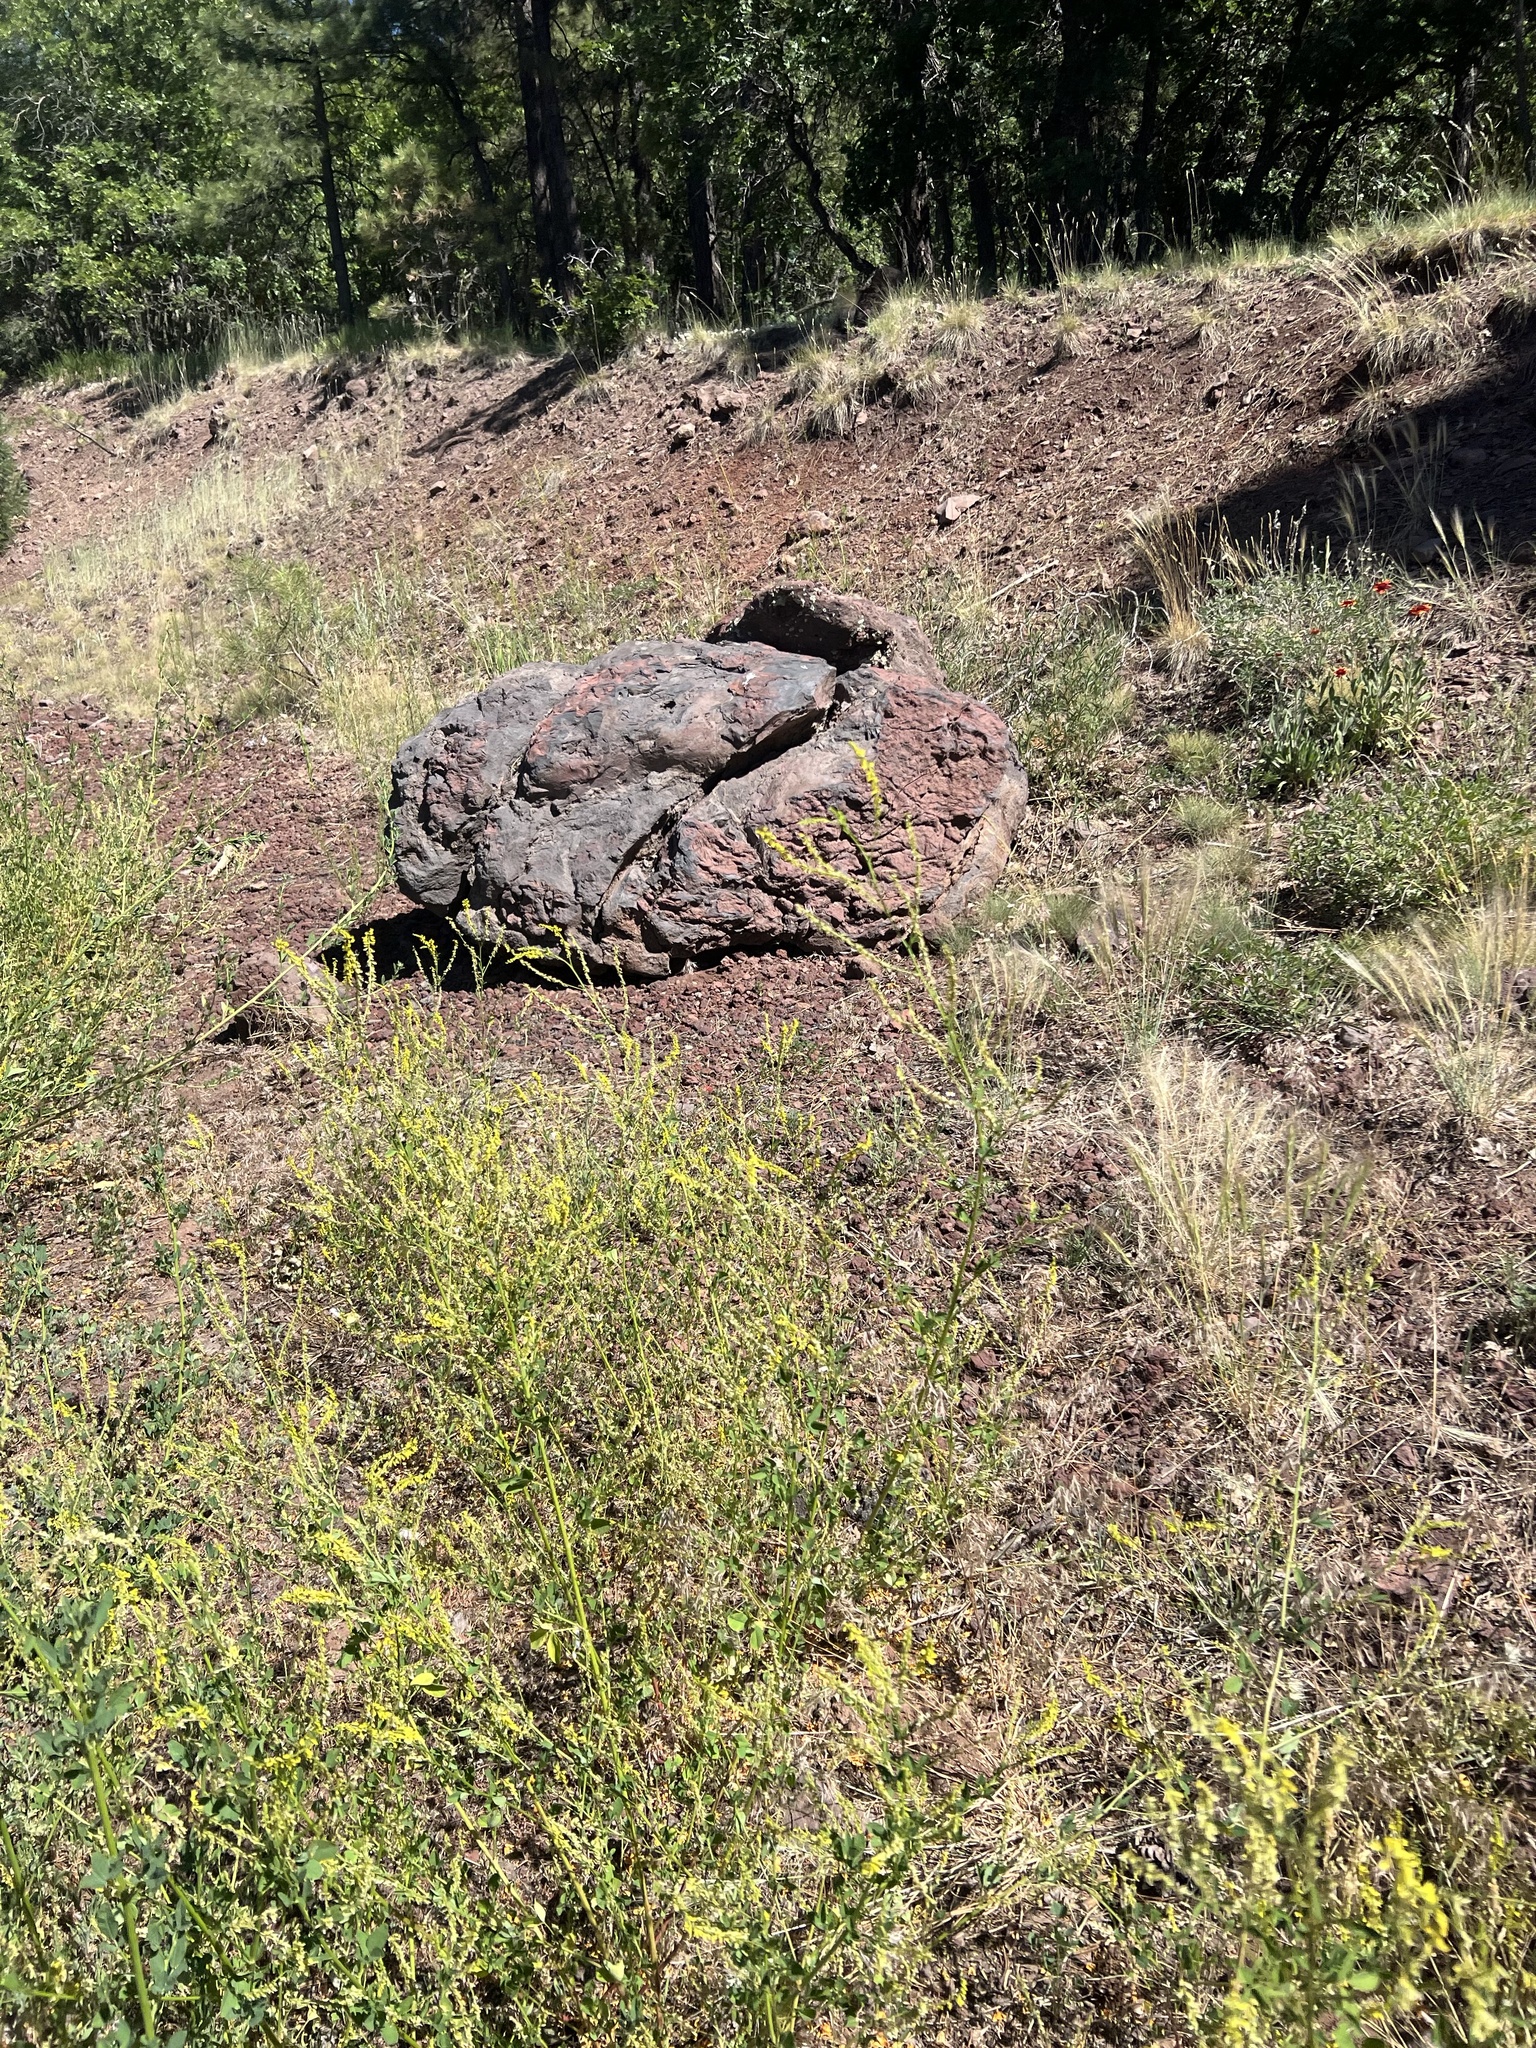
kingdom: Plantae
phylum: Tracheophyta
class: Magnoliopsida
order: Fabales
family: Fabaceae
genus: Melilotus
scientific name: Melilotus officinalis
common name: Sweetclover
